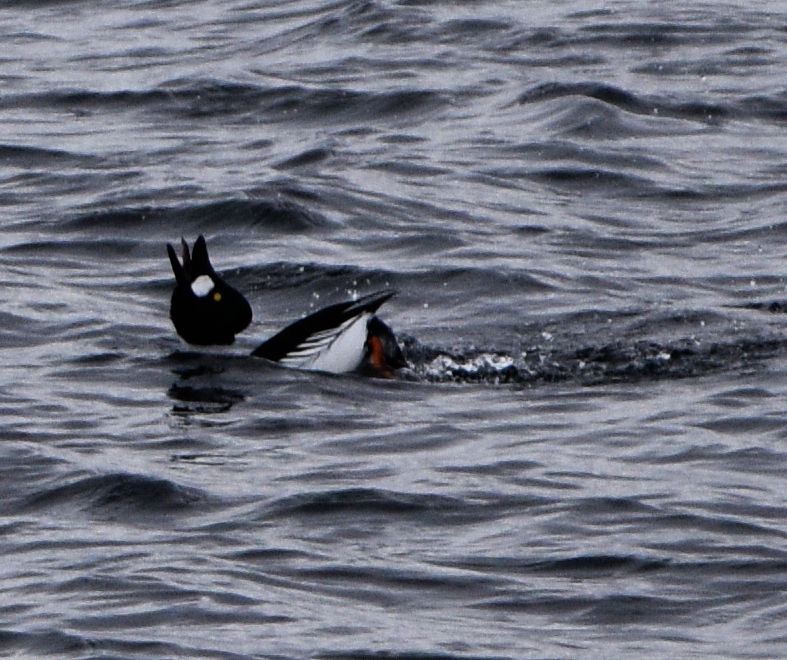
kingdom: Animalia
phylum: Chordata
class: Aves
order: Anseriformes
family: Anatidae
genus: Bucephala
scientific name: Bucephala clangula
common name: Common goldeneye
